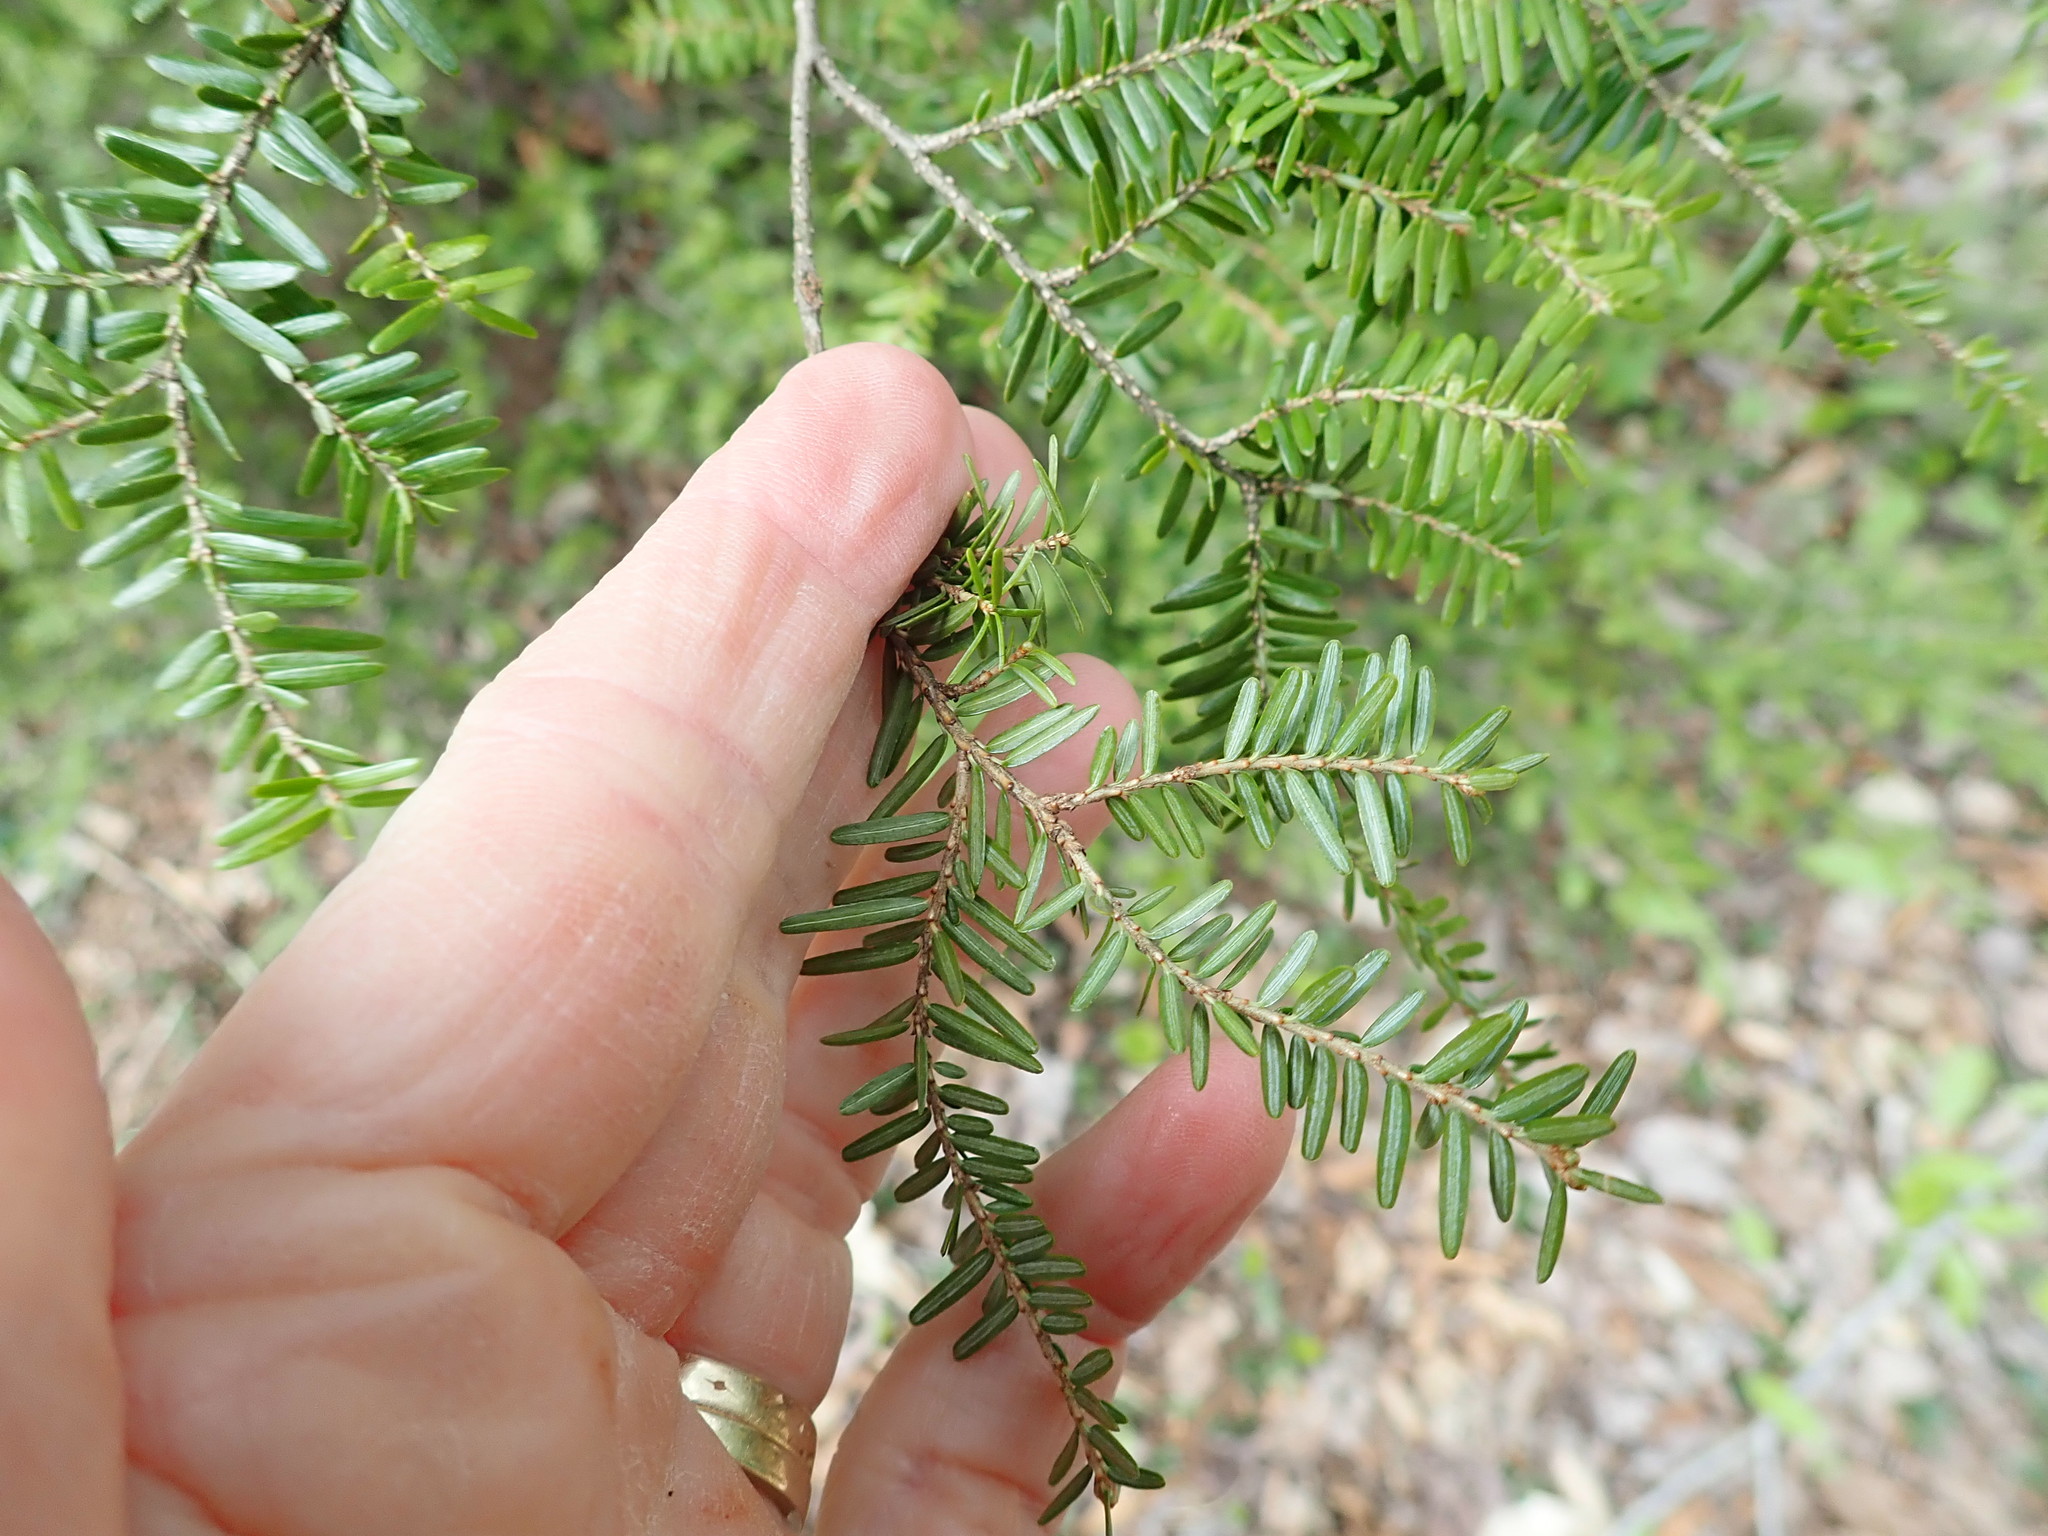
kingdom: Plantae
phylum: Tracheophyta
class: Pinopsida
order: Pinales
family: Pinaceae
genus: Tsuga
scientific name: Tsuga canadensis
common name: Eastern hemlock
